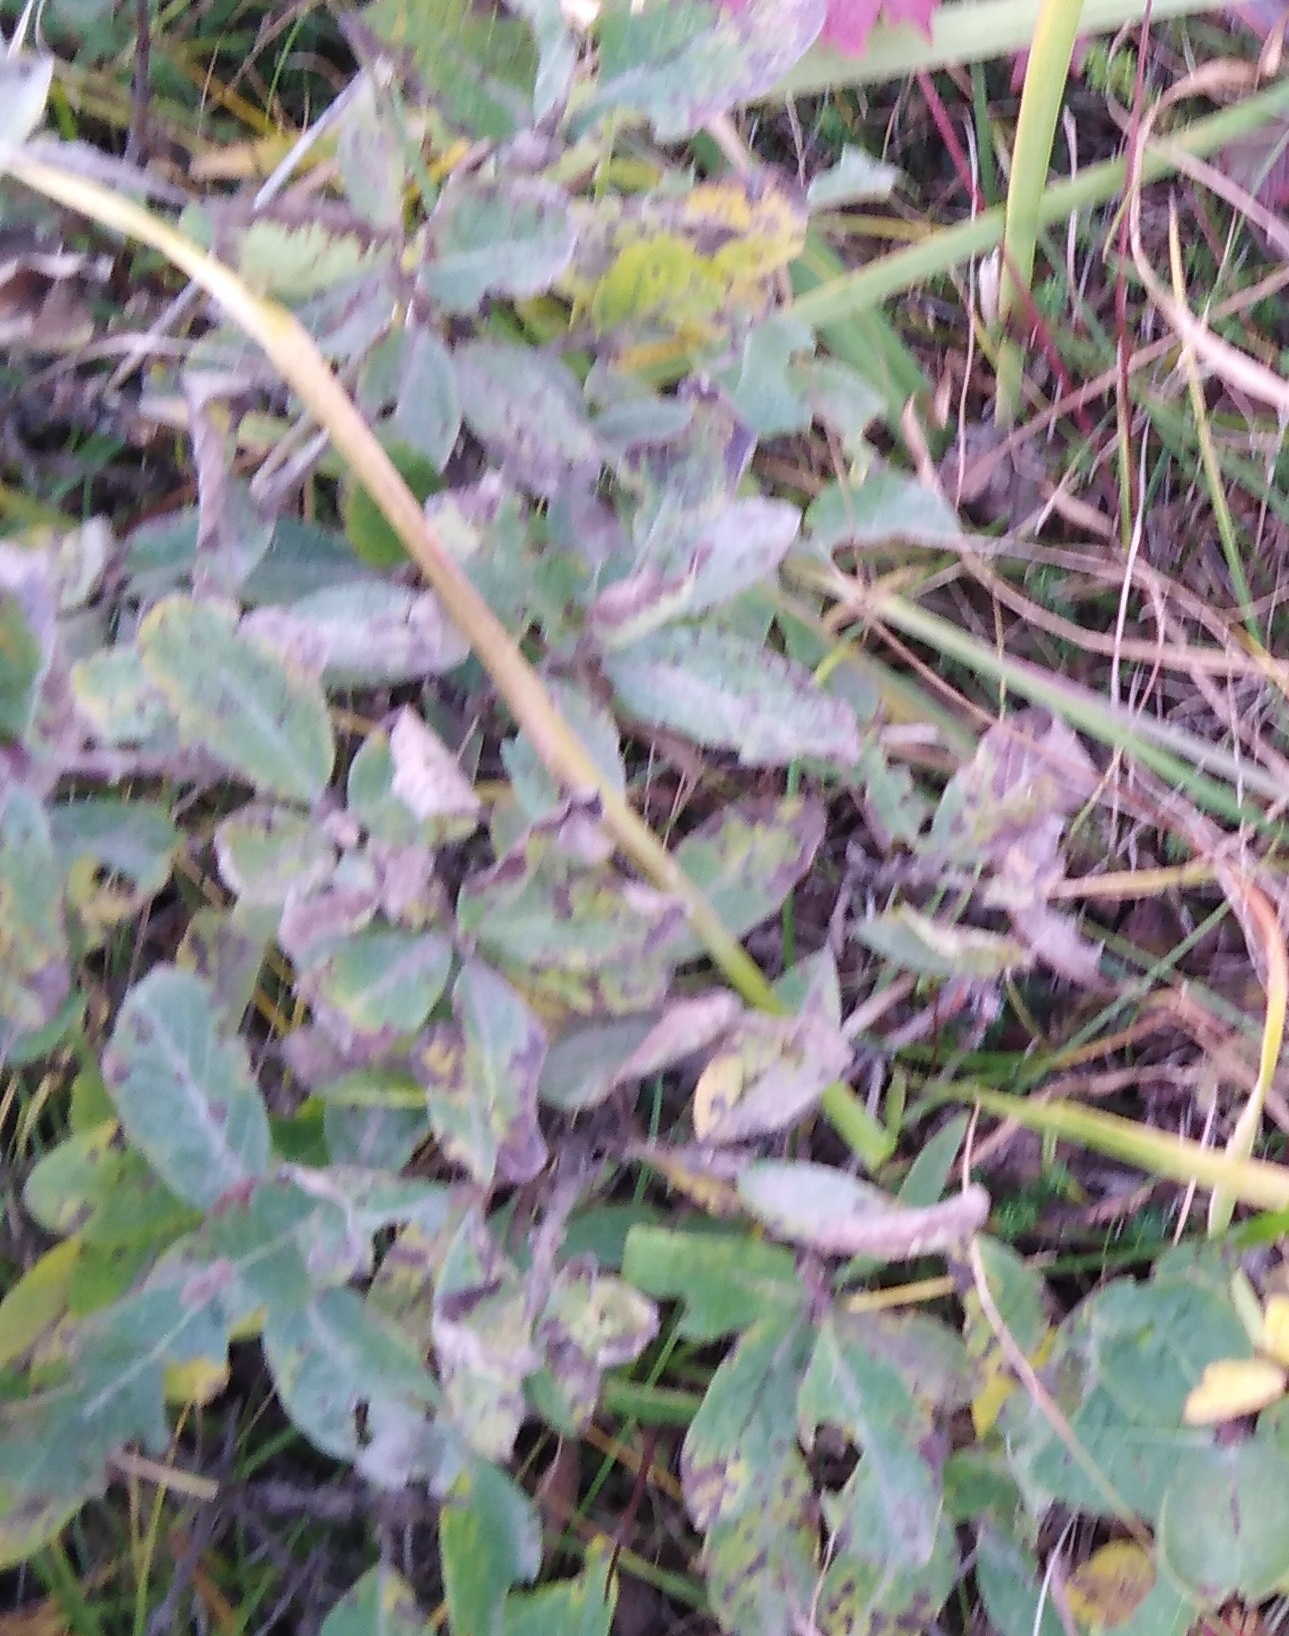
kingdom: Plantae
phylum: Tracheophyta
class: Magnoliopsida
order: Dipsacales
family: Caprifoliaceae
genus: Lonicera
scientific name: Lonicera caerulea
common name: Blue honeysuckle
